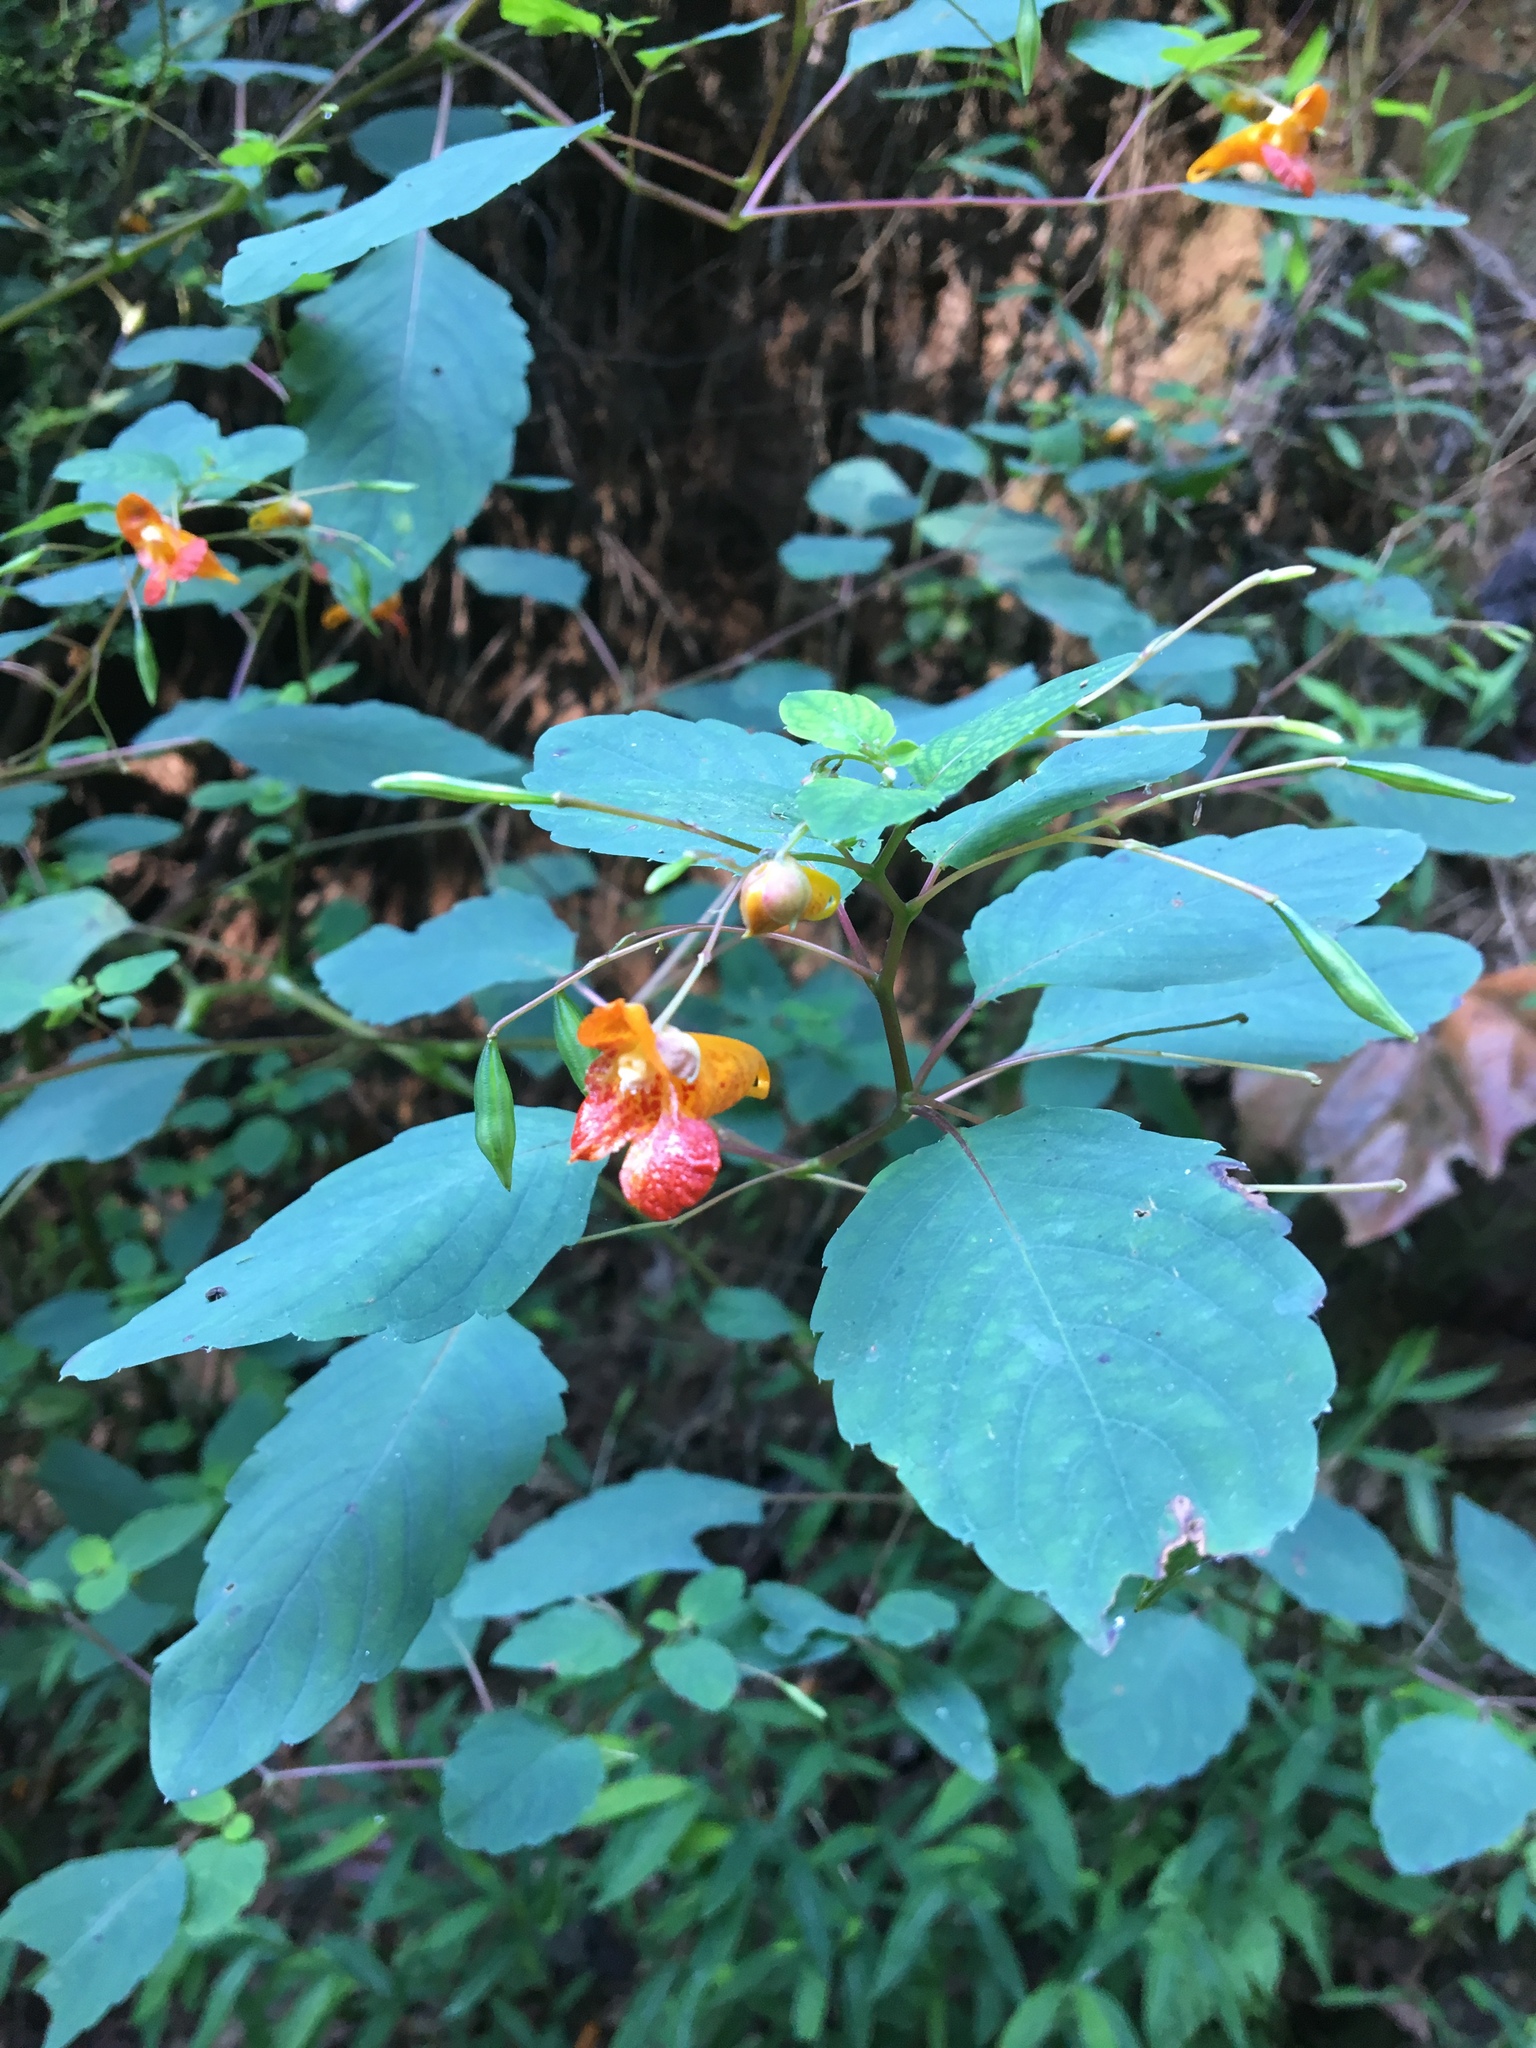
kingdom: Plantae
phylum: Tracheophyta
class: Magnoliopsida
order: Ericales
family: Balsaminaceae
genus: Impatiens
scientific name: Impatiens capensis
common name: Orange balsam
